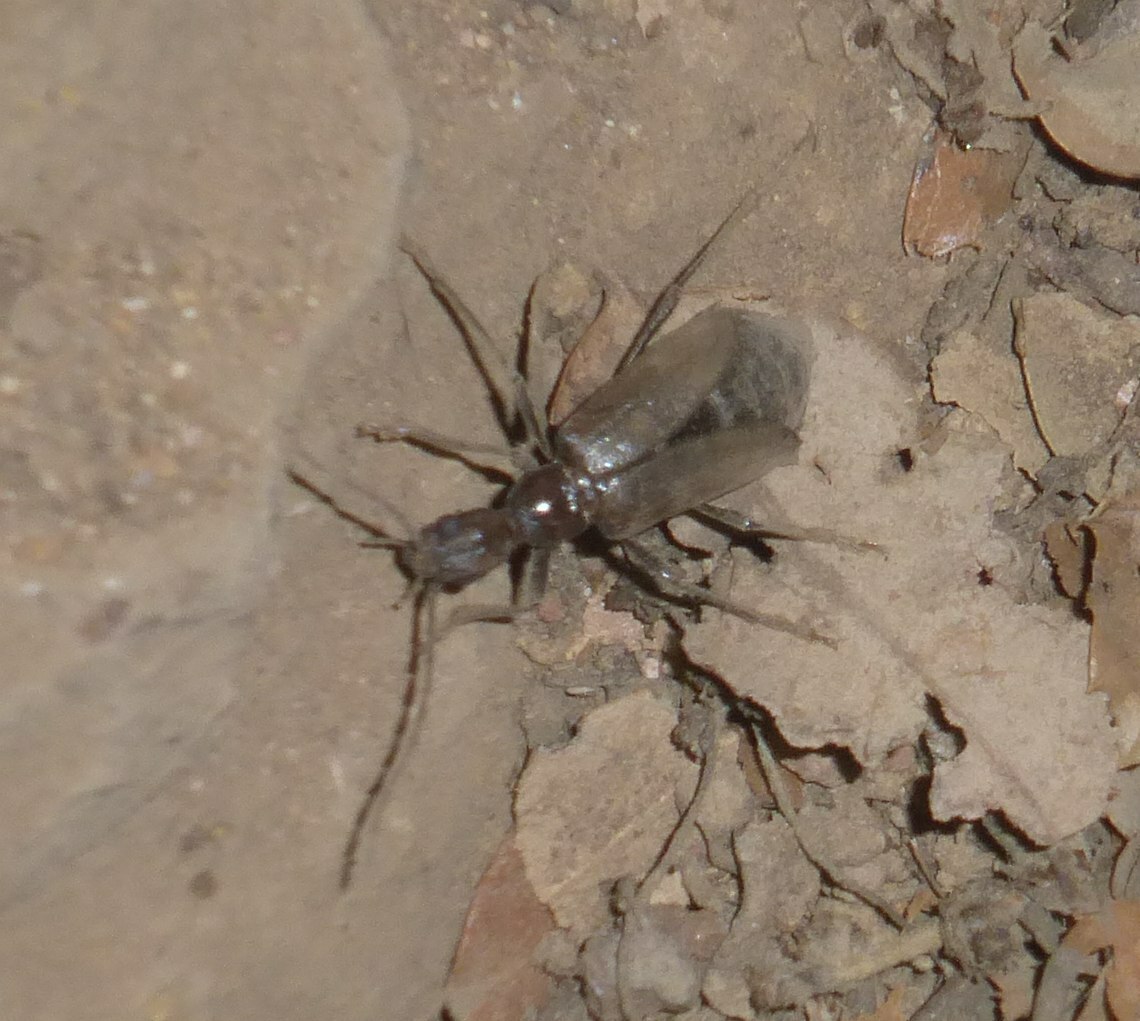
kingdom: Animalia
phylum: Arthropoda
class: Insecta
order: Coleoptera
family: Cerambycidae
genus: Vesperus
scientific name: Vesperus luridus
